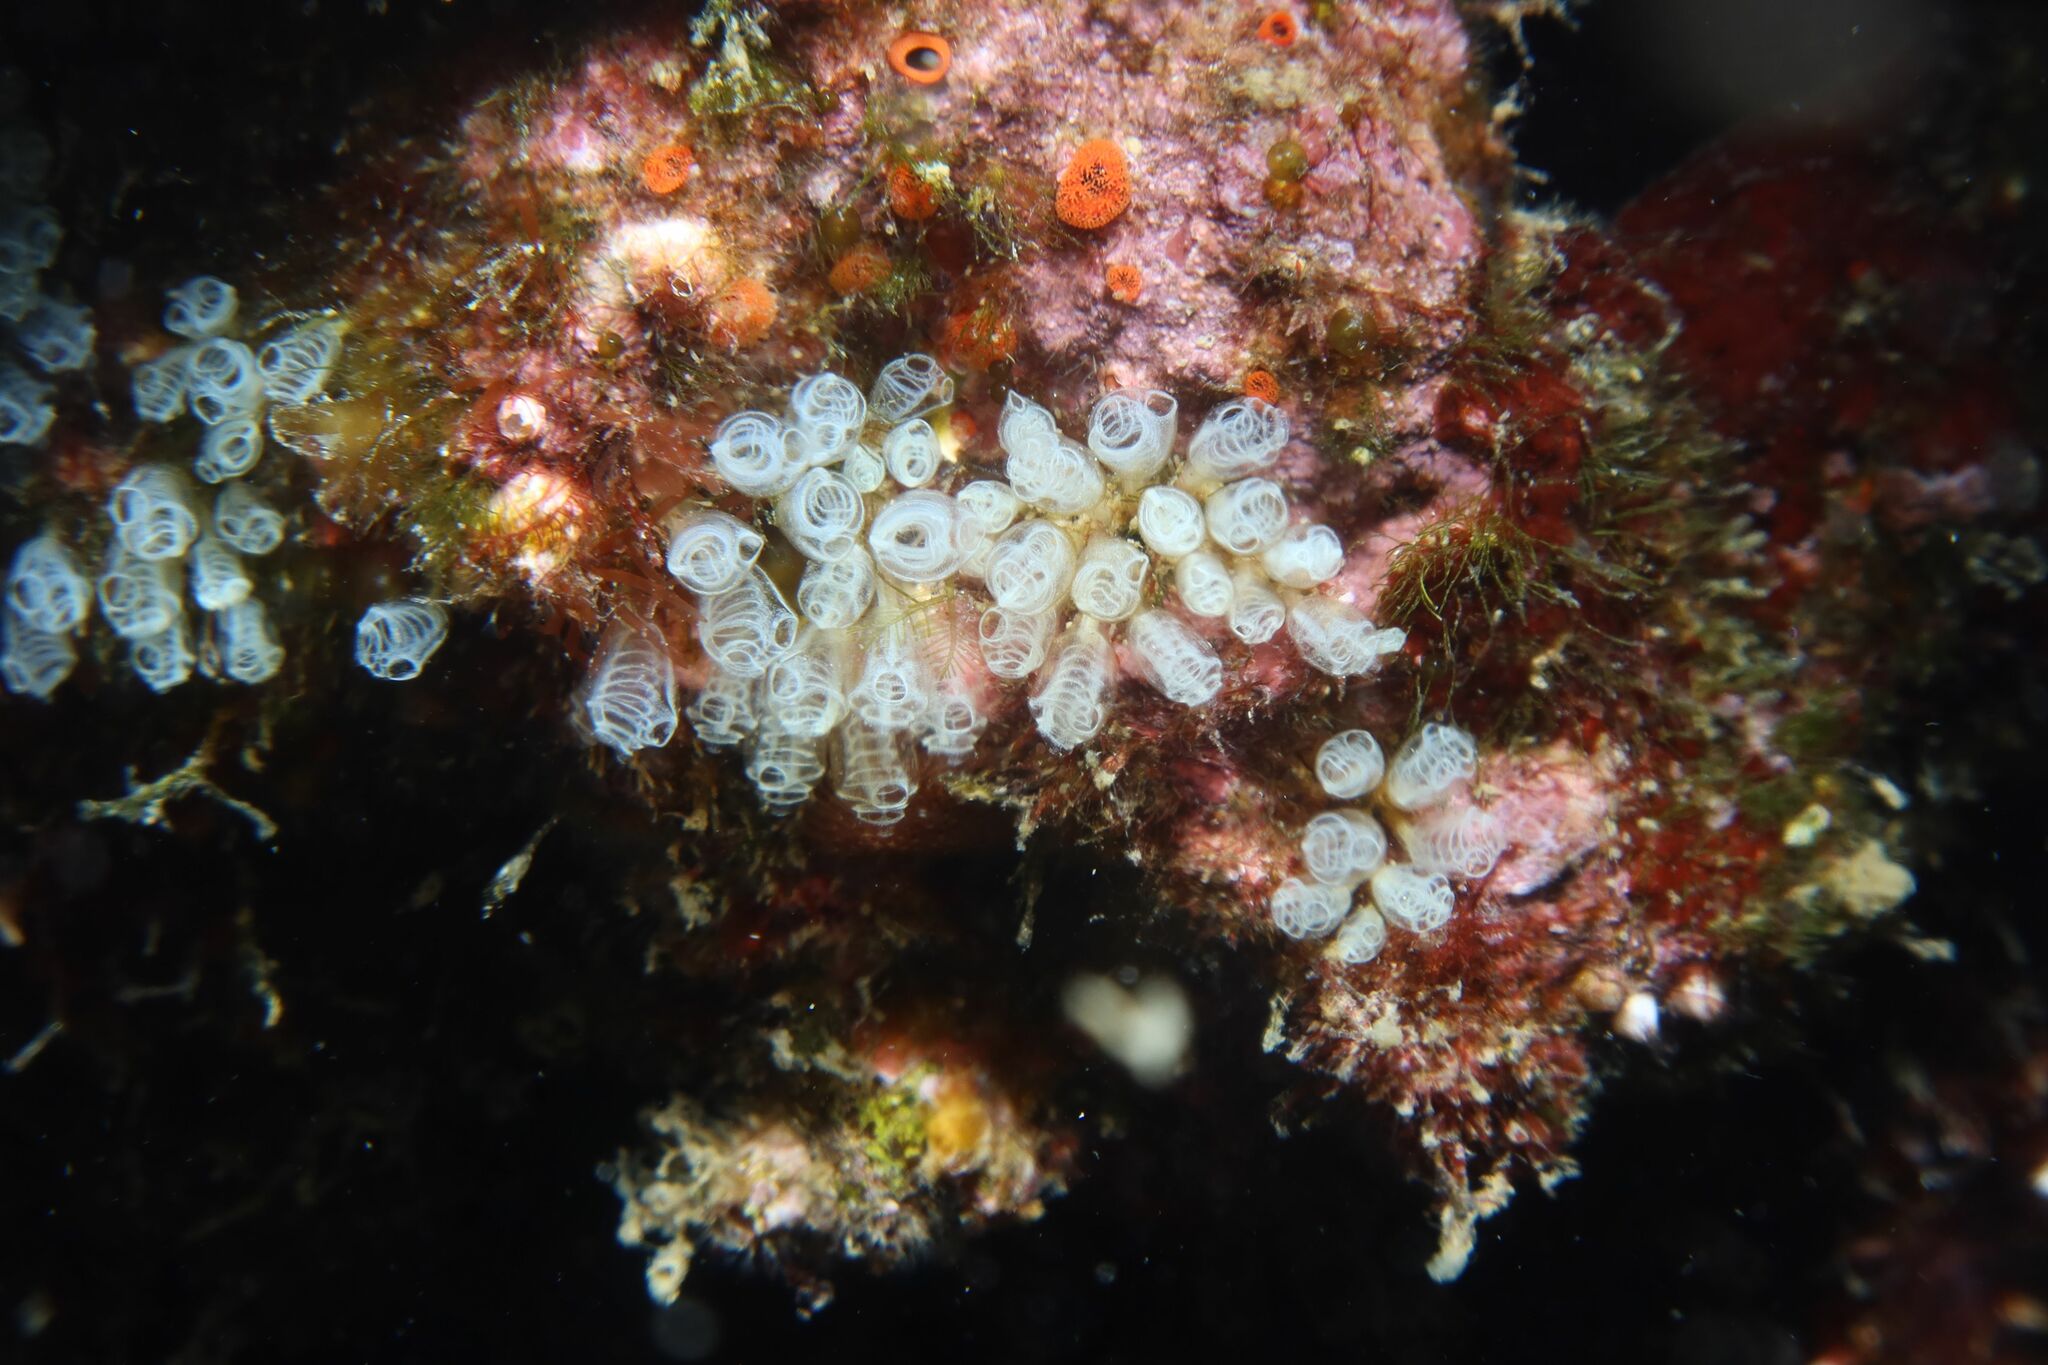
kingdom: Animalia
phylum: Chordata
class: Ascidiacea
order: Aplousobranchia
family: Clavelinidae
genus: Pycnoclavella
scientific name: Pycnoclavella communis
